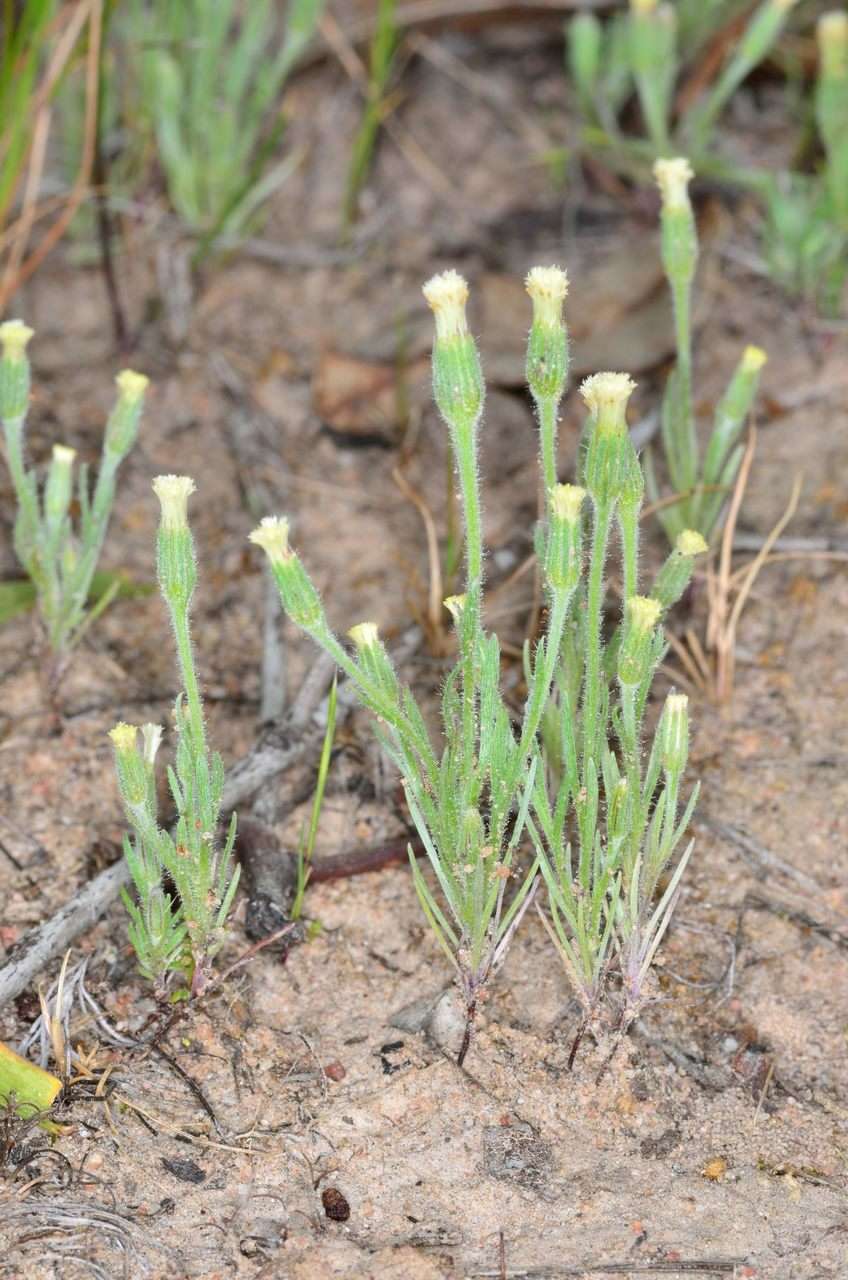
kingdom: Plantae
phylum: Tracheophyta
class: Magnoliopsida
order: Asterales
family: Asteraceae
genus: Millotia
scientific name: Millotia tenuifolia
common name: Soft millotia
